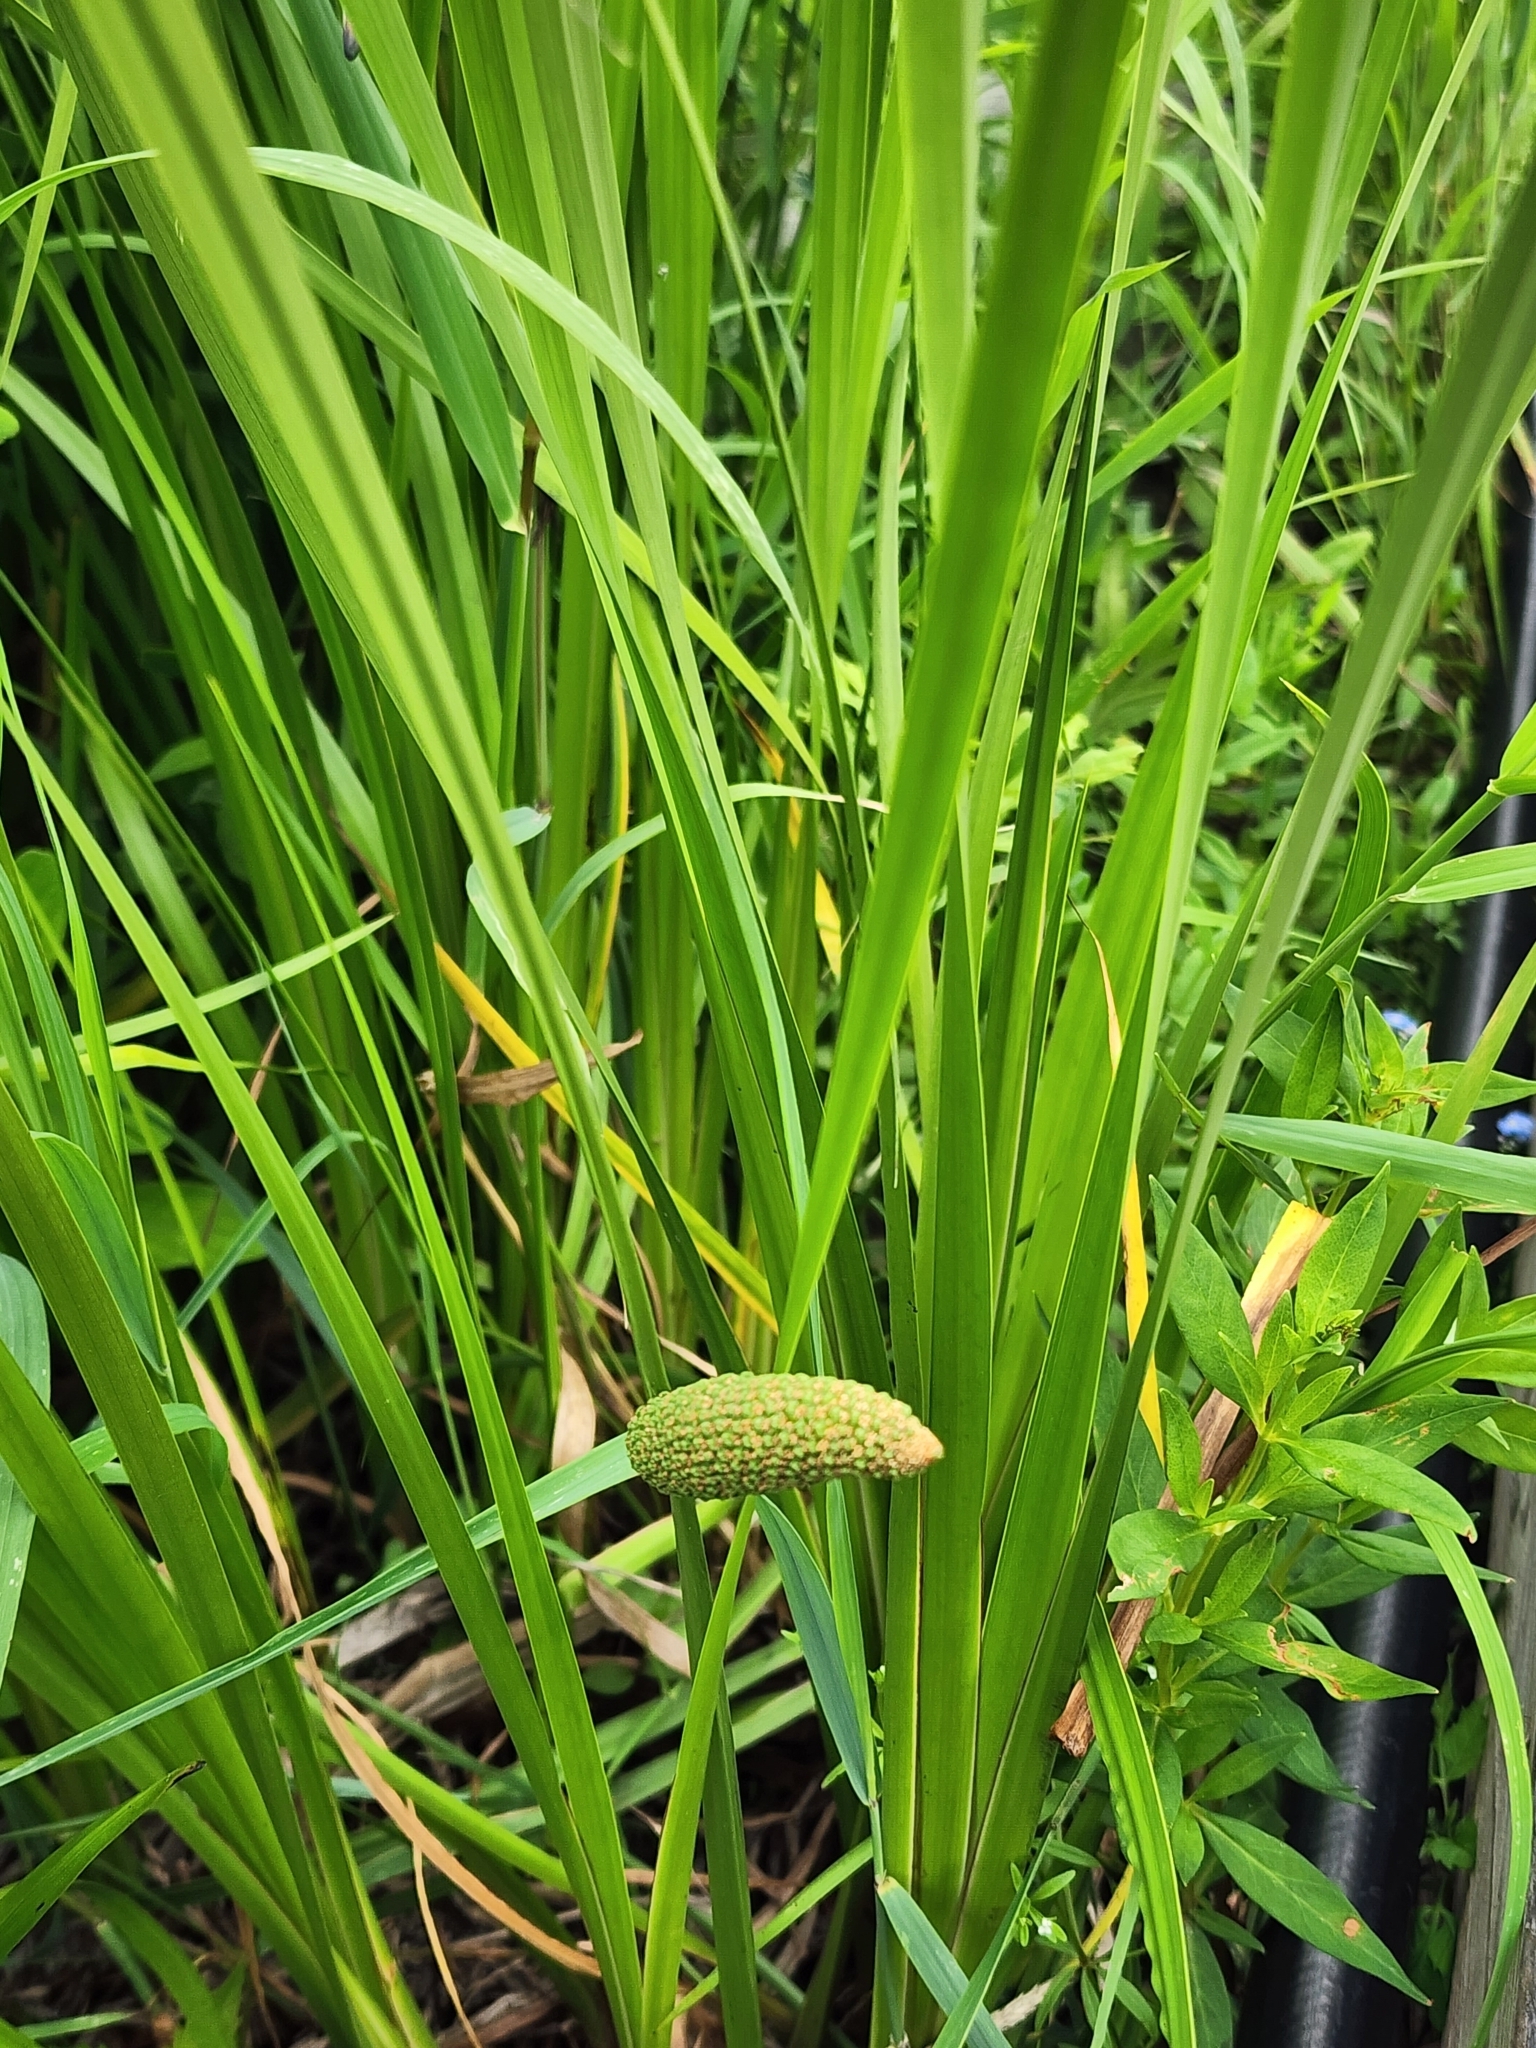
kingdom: Plantae
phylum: Tracheophyta
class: Liliopsida
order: Acorales
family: Acoraceae
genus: Acorus
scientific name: Acorus calamus
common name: Sweet-flag
